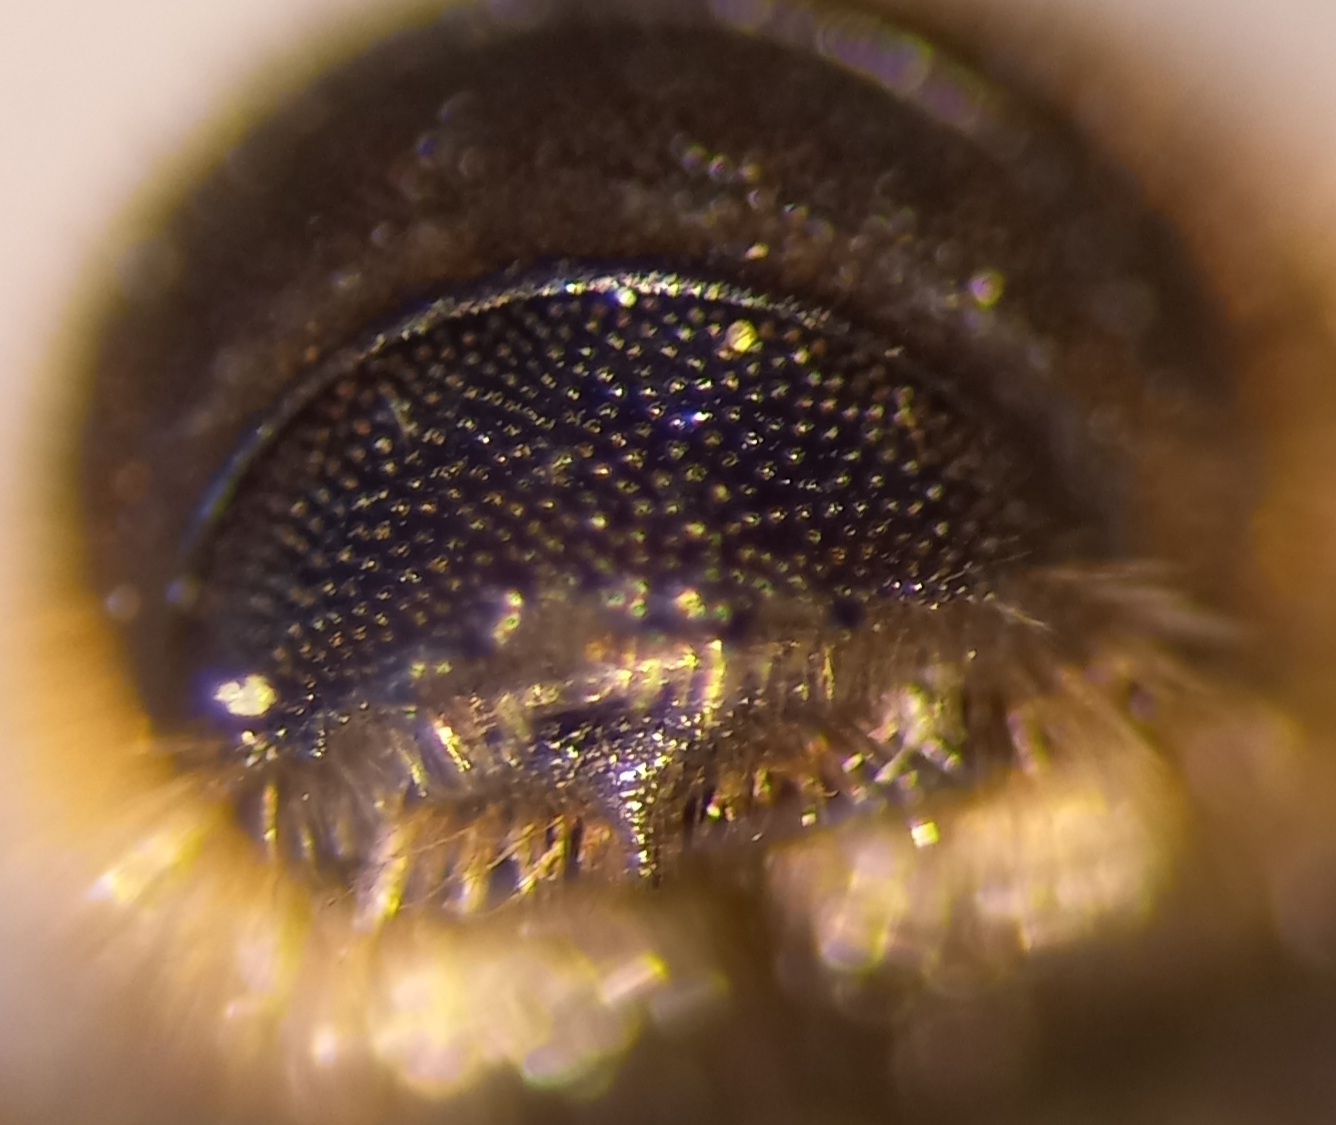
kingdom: Animalia
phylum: Arthropoda
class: Insecta
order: Hymenoptera
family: Megachilidae
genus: Osmia
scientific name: Osmia spinulosa
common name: Spined mason bee
